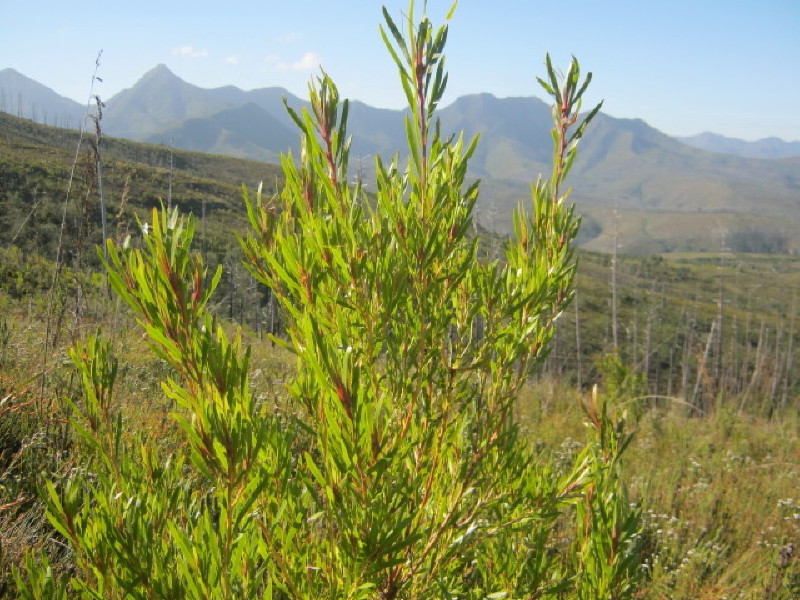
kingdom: Plantae
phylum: Tracheophyta
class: Magnoliopsida
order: Proteales
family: Proteaceae
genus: Leucadendron
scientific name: Leucadendron eucalyptifolium
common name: Gum-leaved conebush
